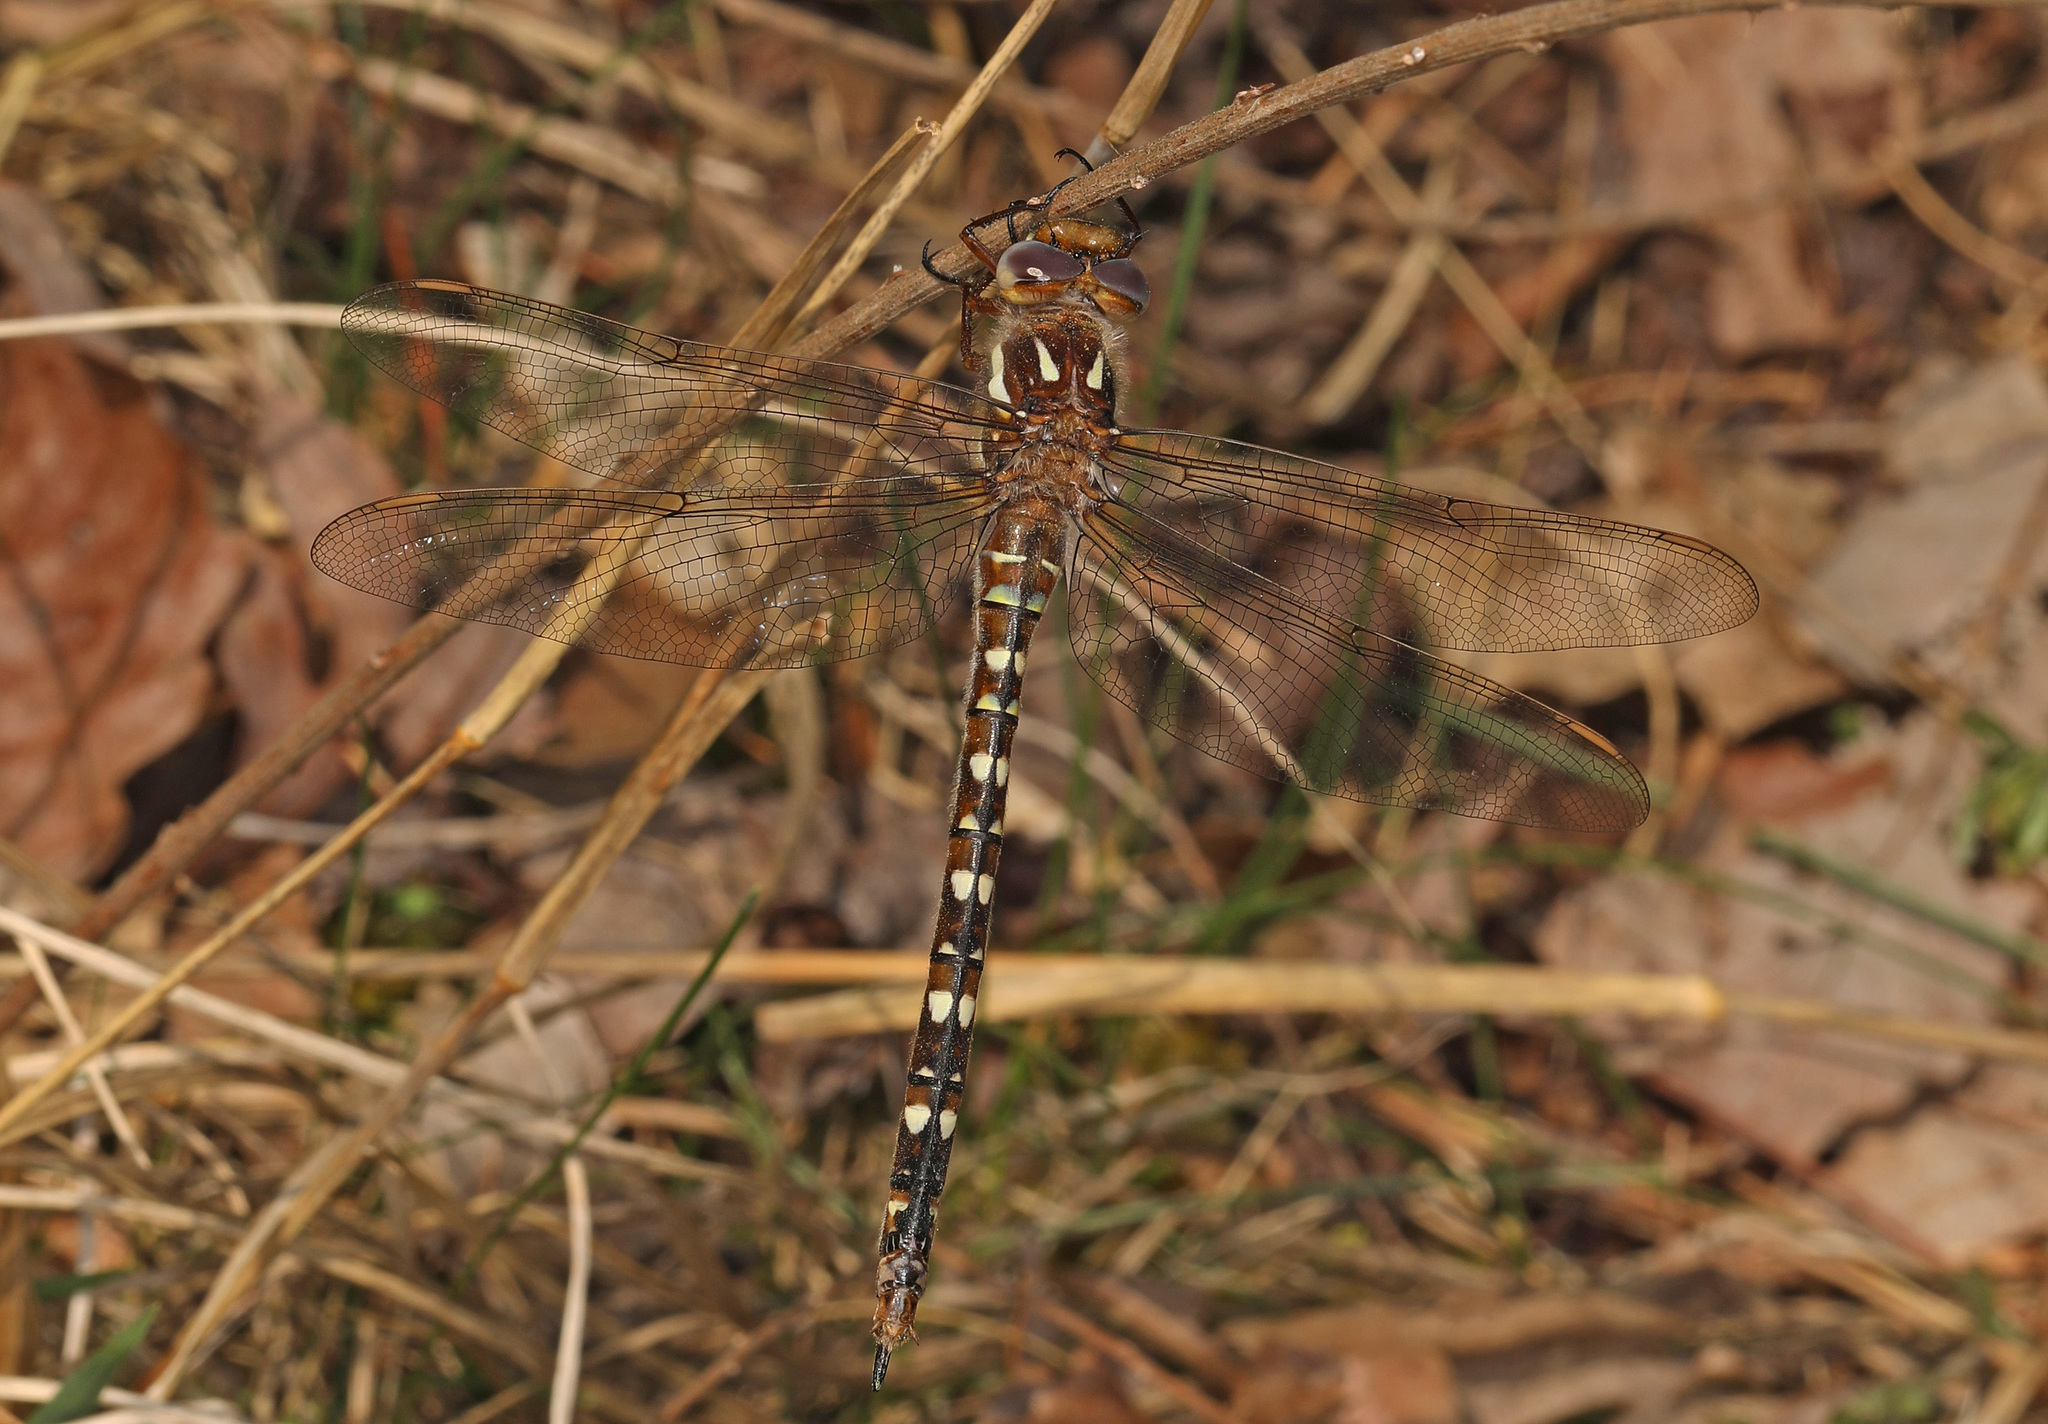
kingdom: Animalia
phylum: Arthropoda
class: Insecta
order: Odonata
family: Cordulegastridae
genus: Cordulegaster
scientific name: Cordulegaster maculata
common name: Twin-spotted spiketail
